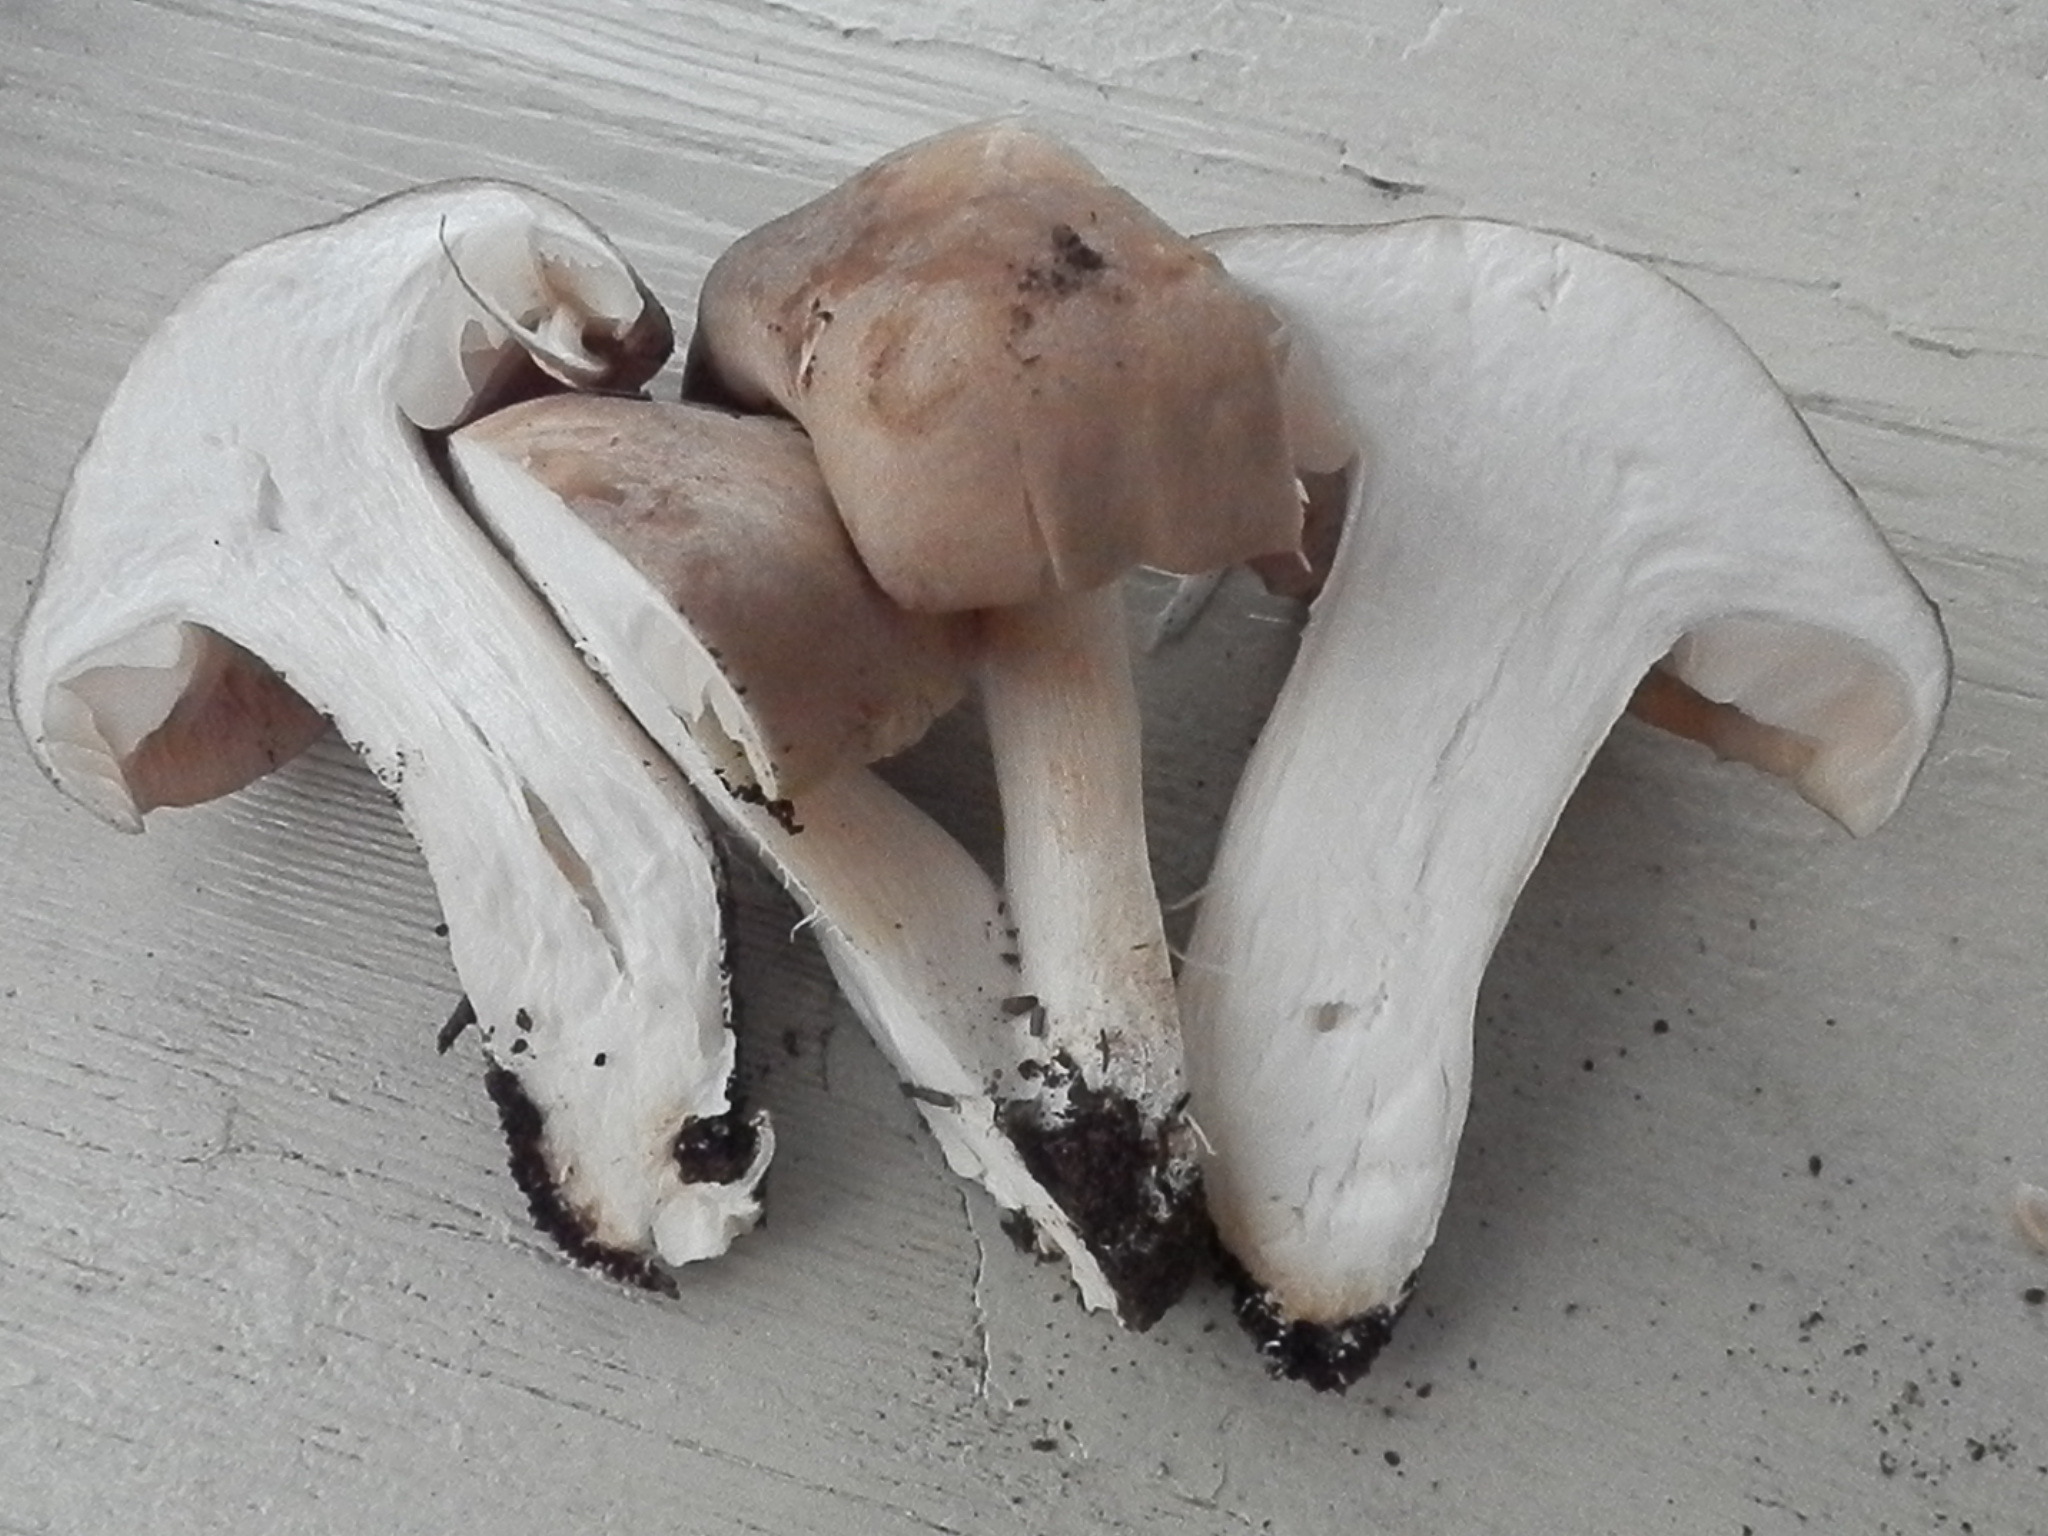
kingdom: Fungi
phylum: Basidiomycota
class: Agaricomycetes
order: Agaricales
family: Entolomataceae
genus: Entoloma
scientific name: Entoloma whiteae
